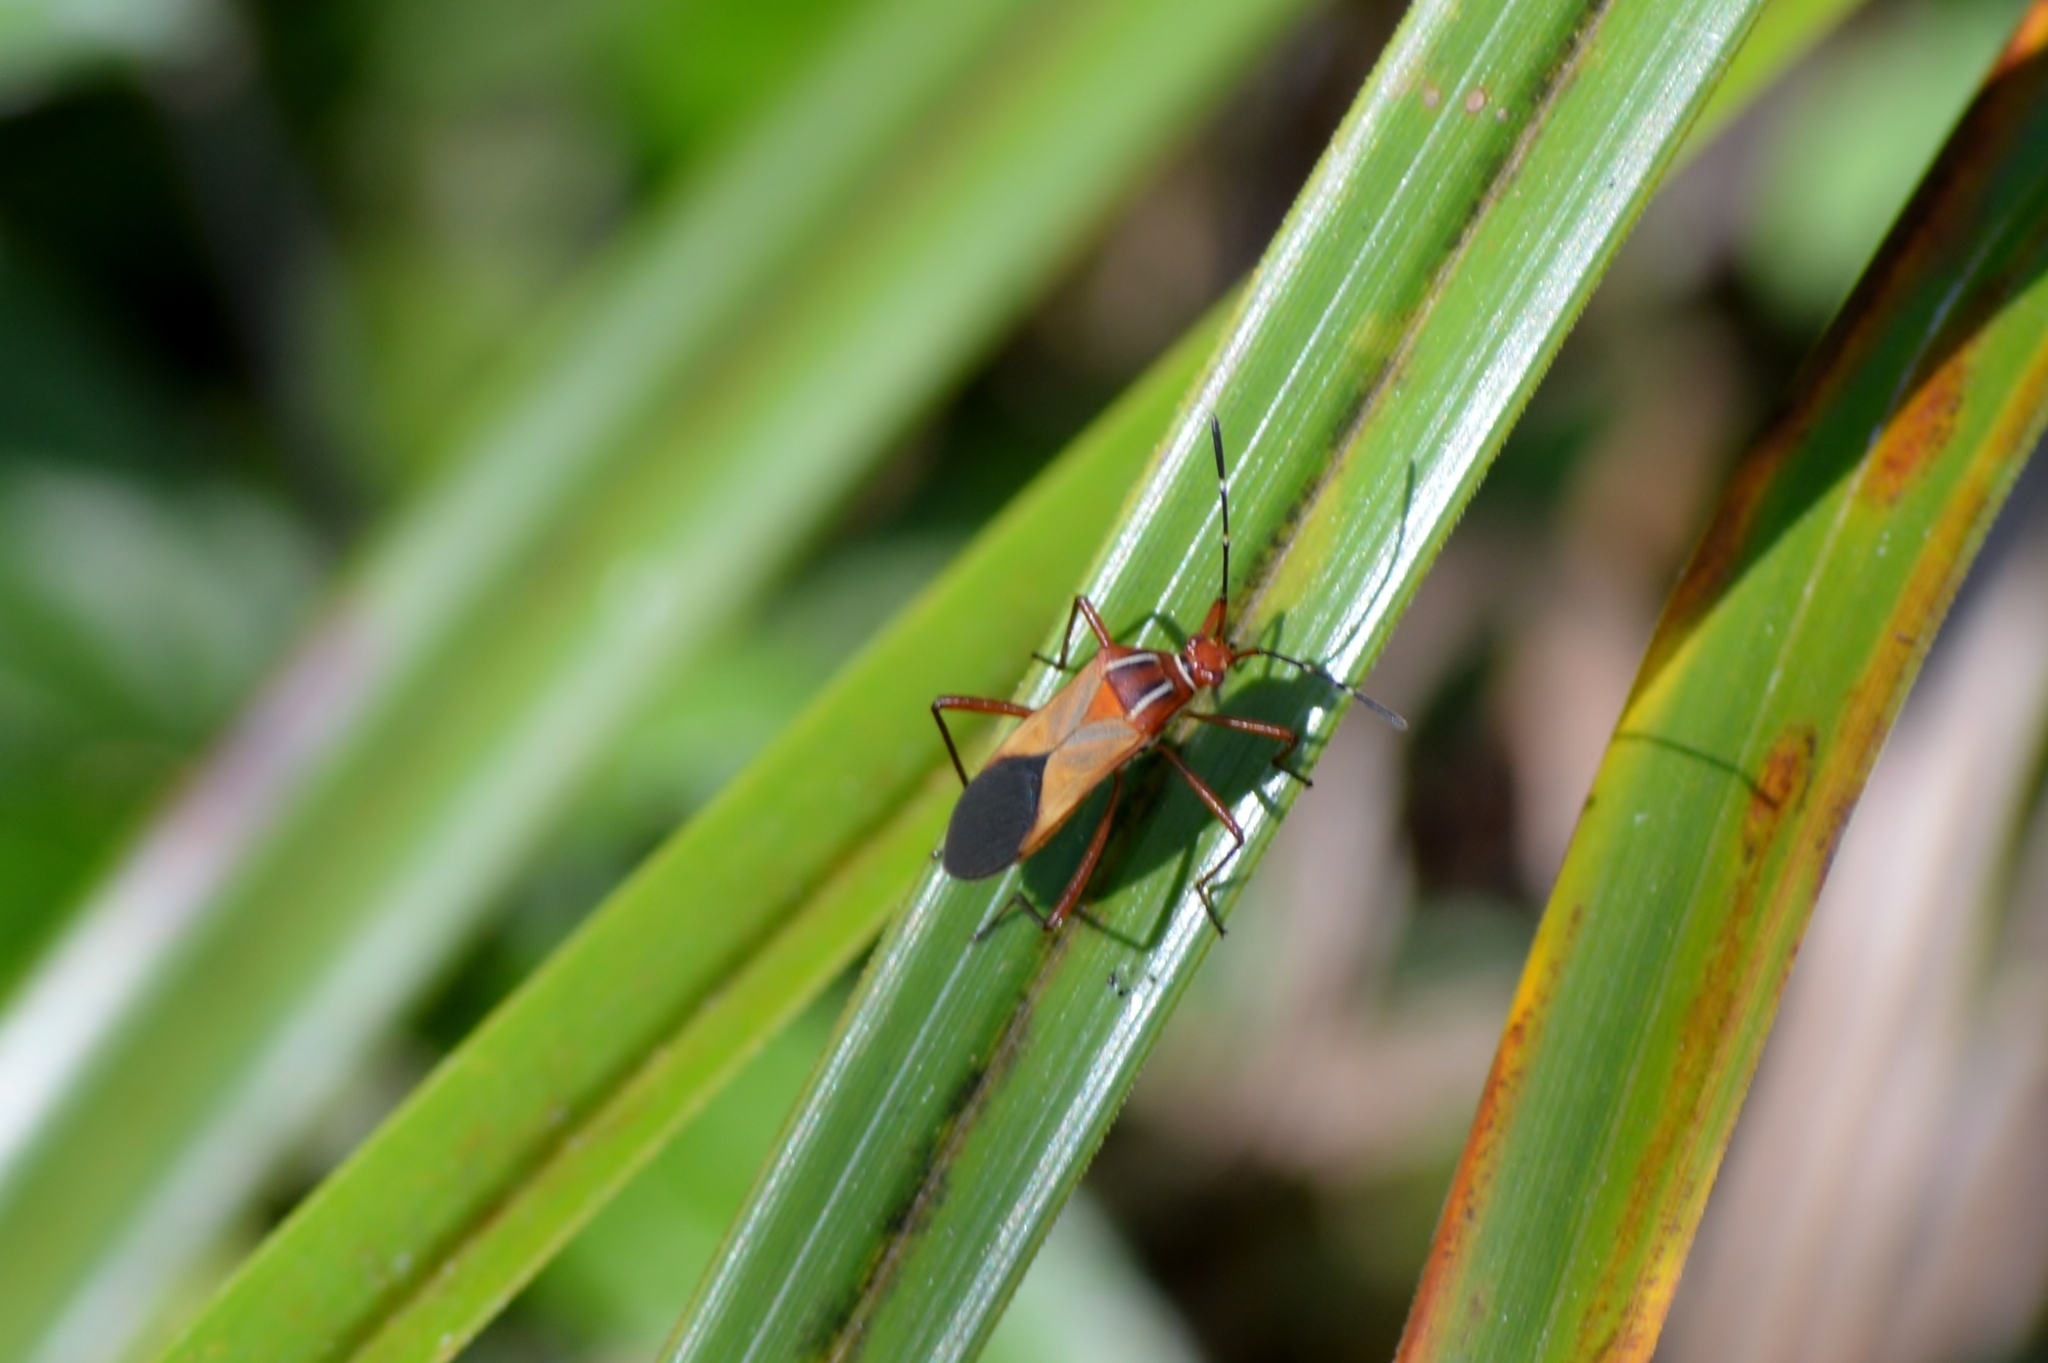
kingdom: Animalia
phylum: Arthropoda
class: Insecta
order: Hemiptera
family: Coreidae
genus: Hypselonotus
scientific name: Hypselonotus interruptus
